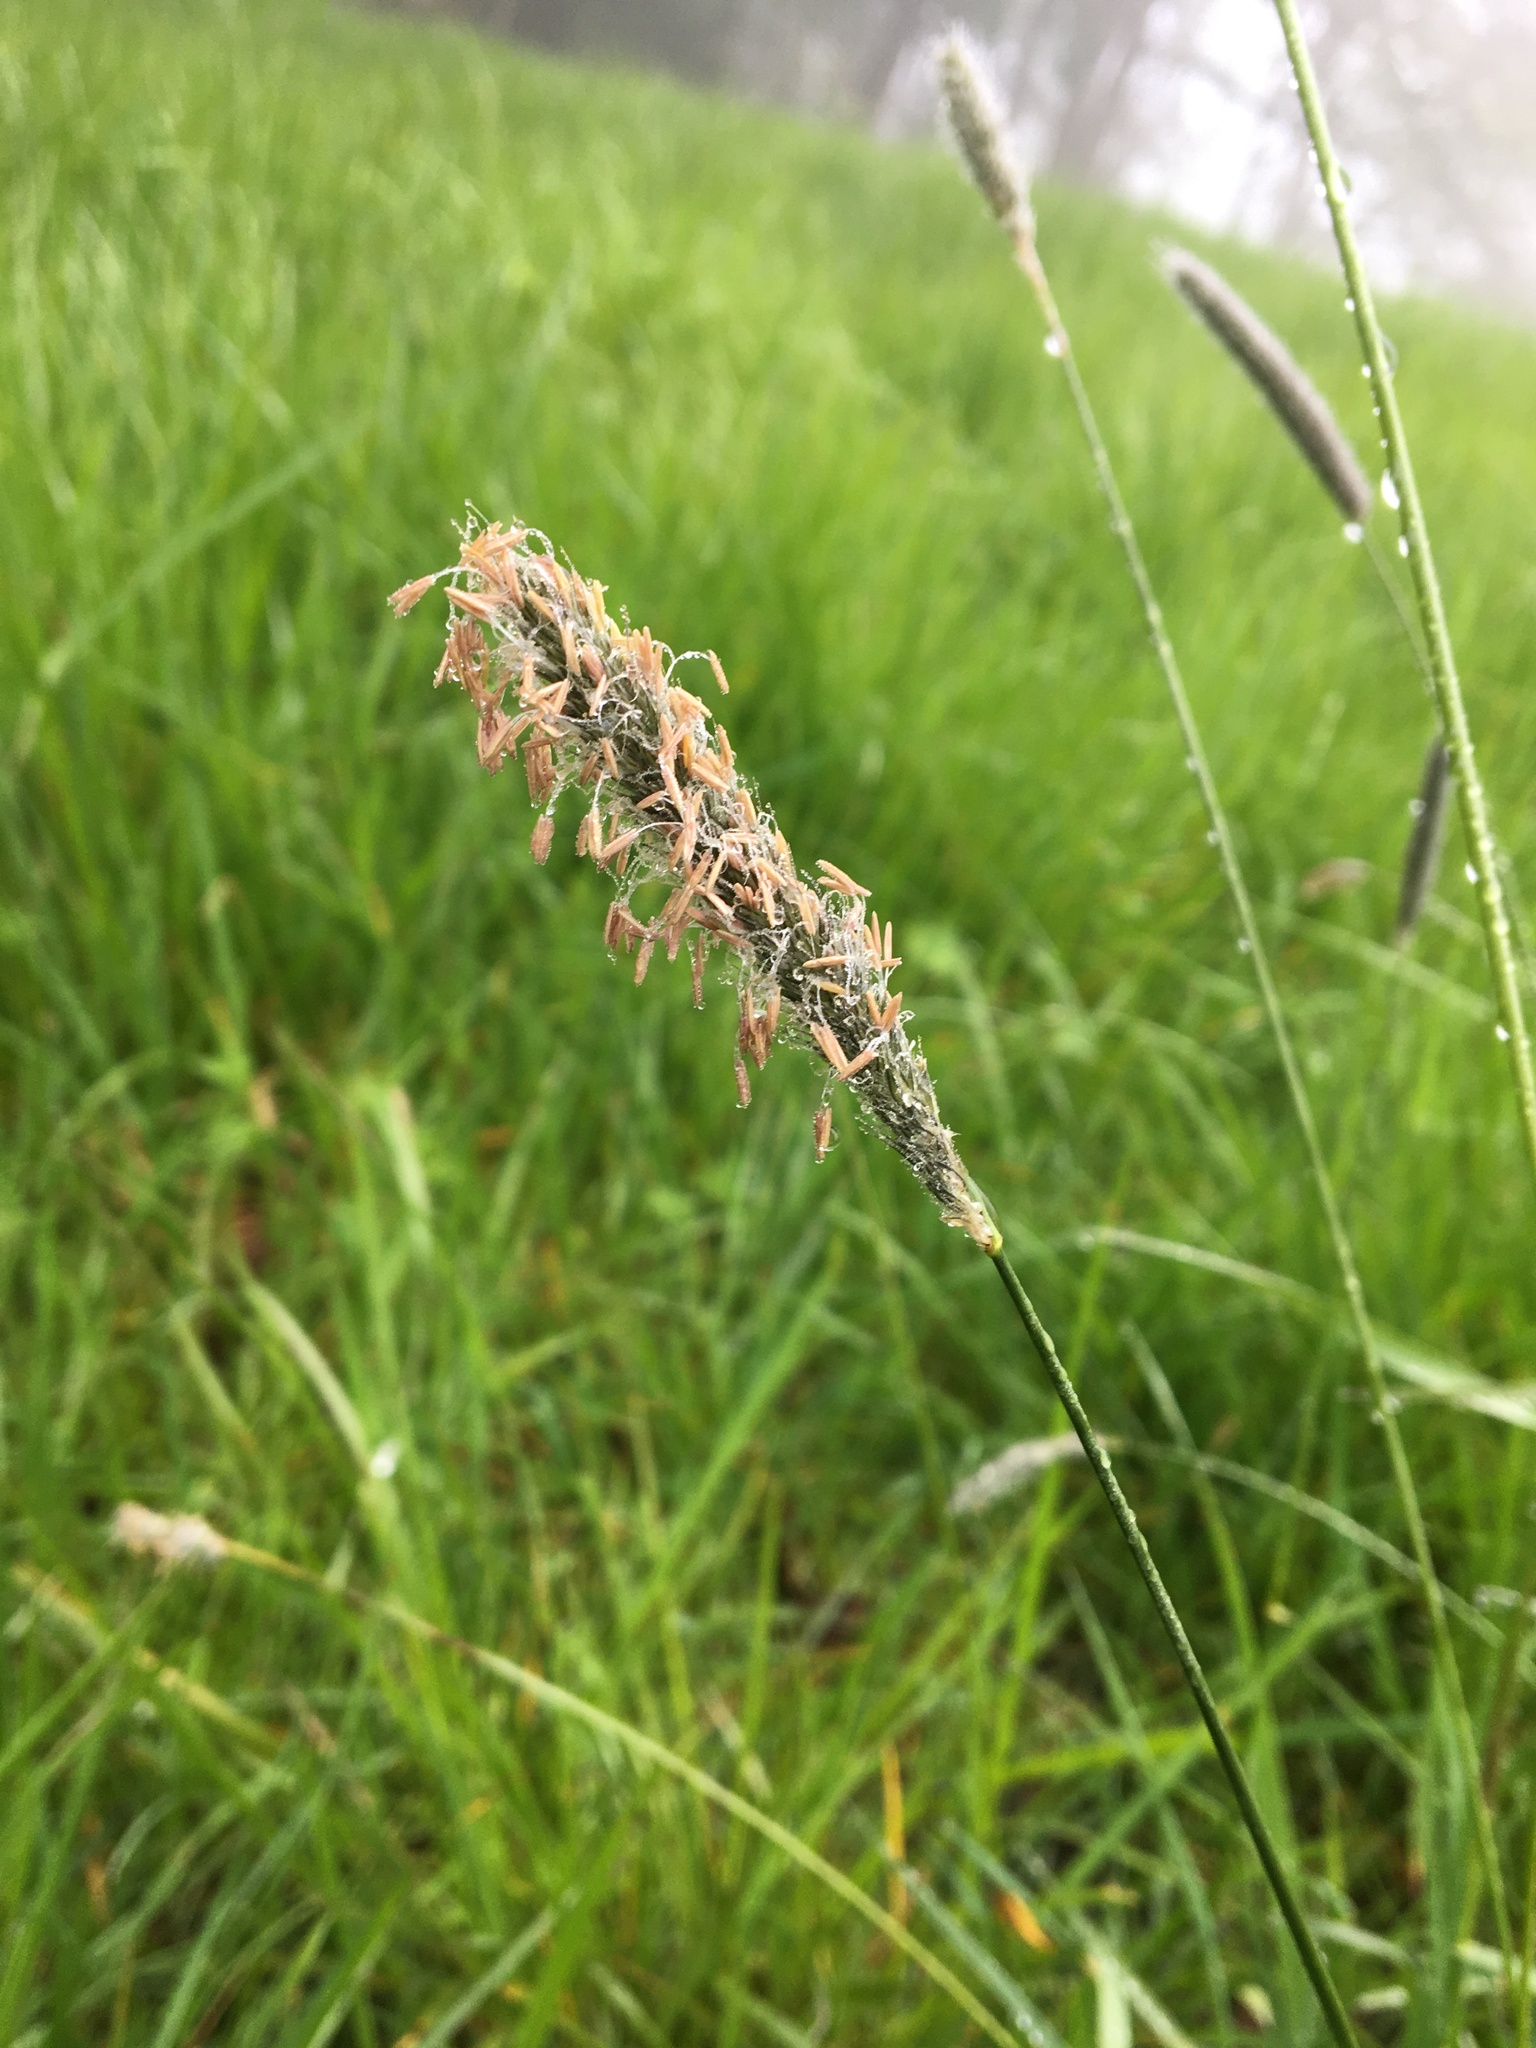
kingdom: Plantae
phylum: Tracheophyta
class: Liliopsida
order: Poales
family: Poaceae
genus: Alopecurus
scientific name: Alopecurus pratensis
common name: Meadow foxtail
